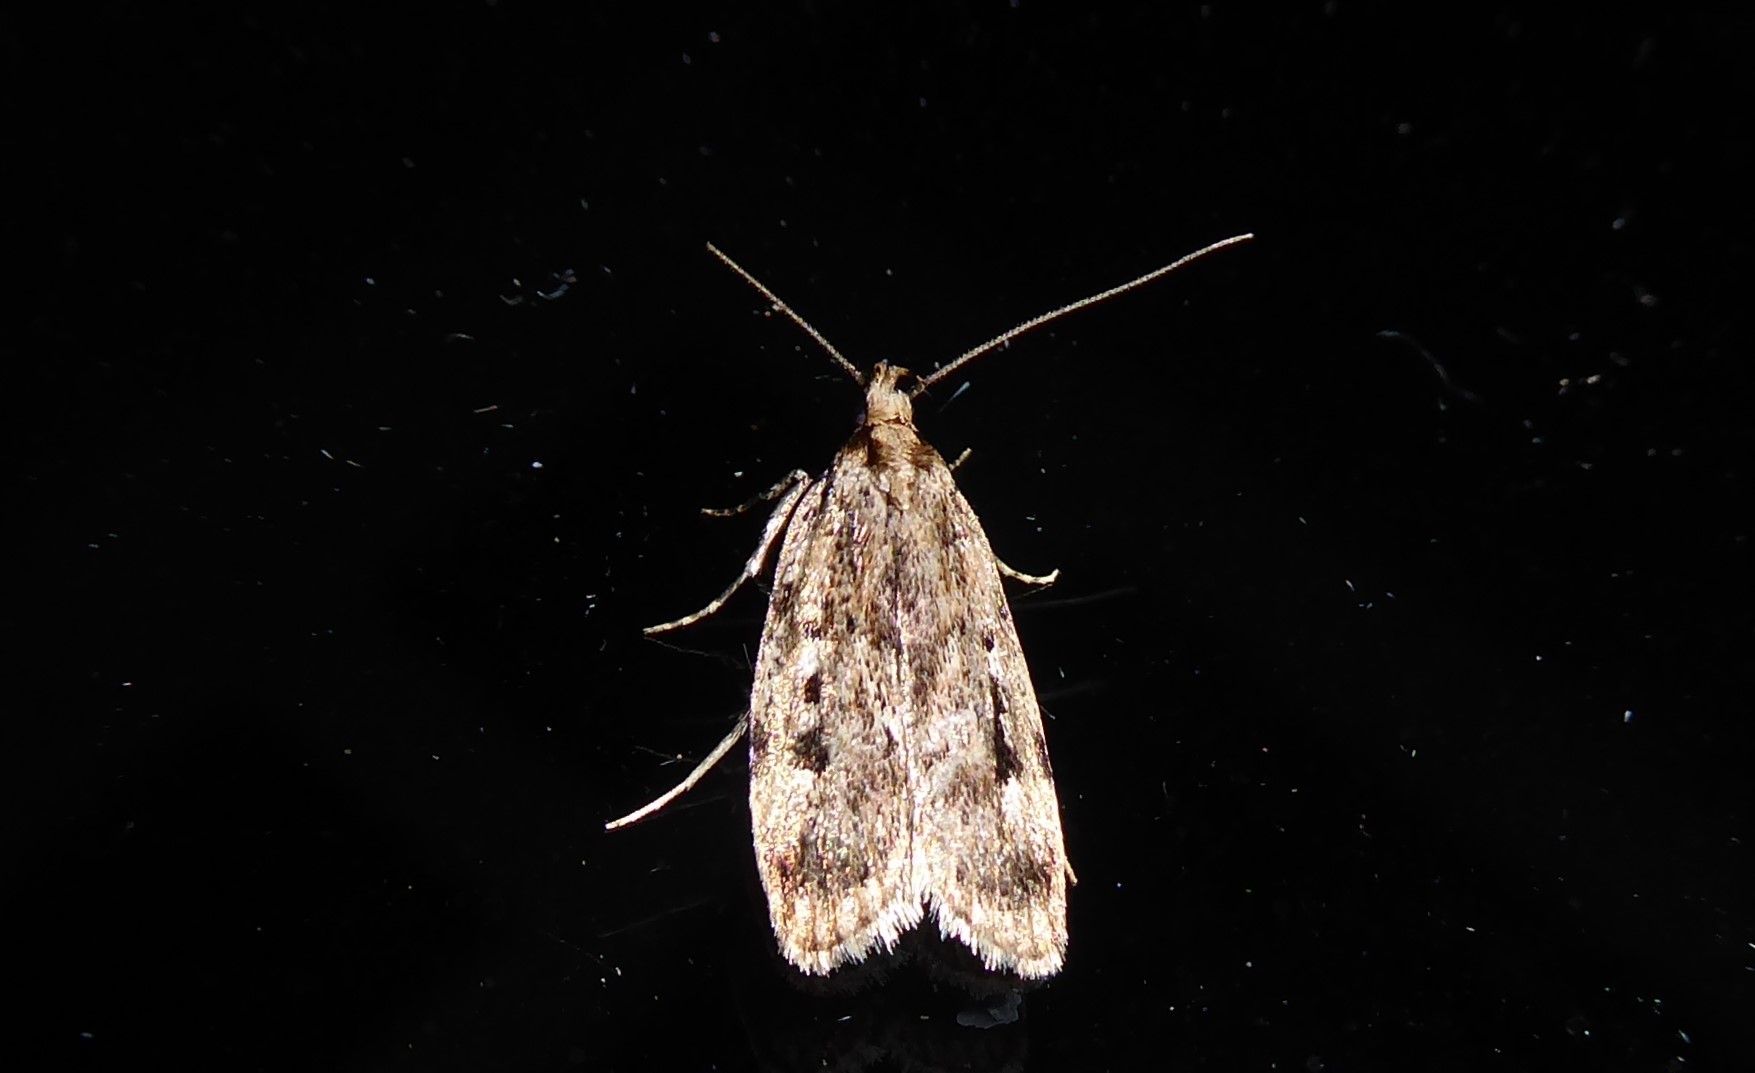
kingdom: Animalia
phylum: Arthropoda
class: Insecta
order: Lepidoptera
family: Oecophoridae
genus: Barea
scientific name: Barea exarcha
